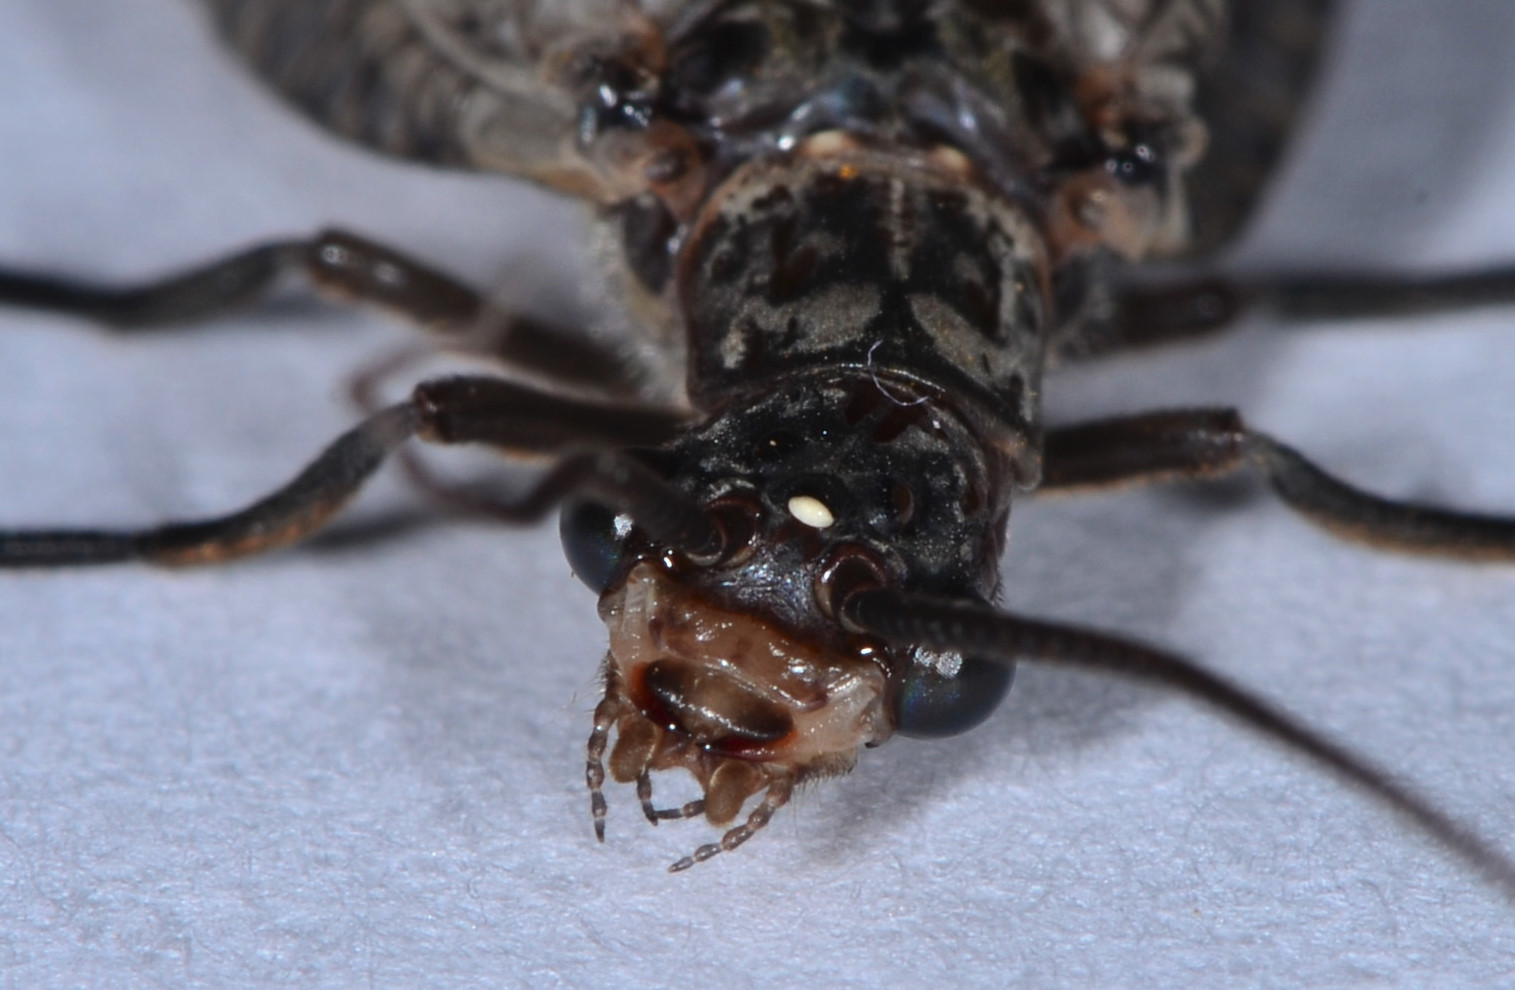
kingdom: Animalia
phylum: Arthropoda
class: Insecta
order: Megaloptera
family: Corydalidae
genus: Protochauliodes
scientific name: Protochauliodes spenceri
